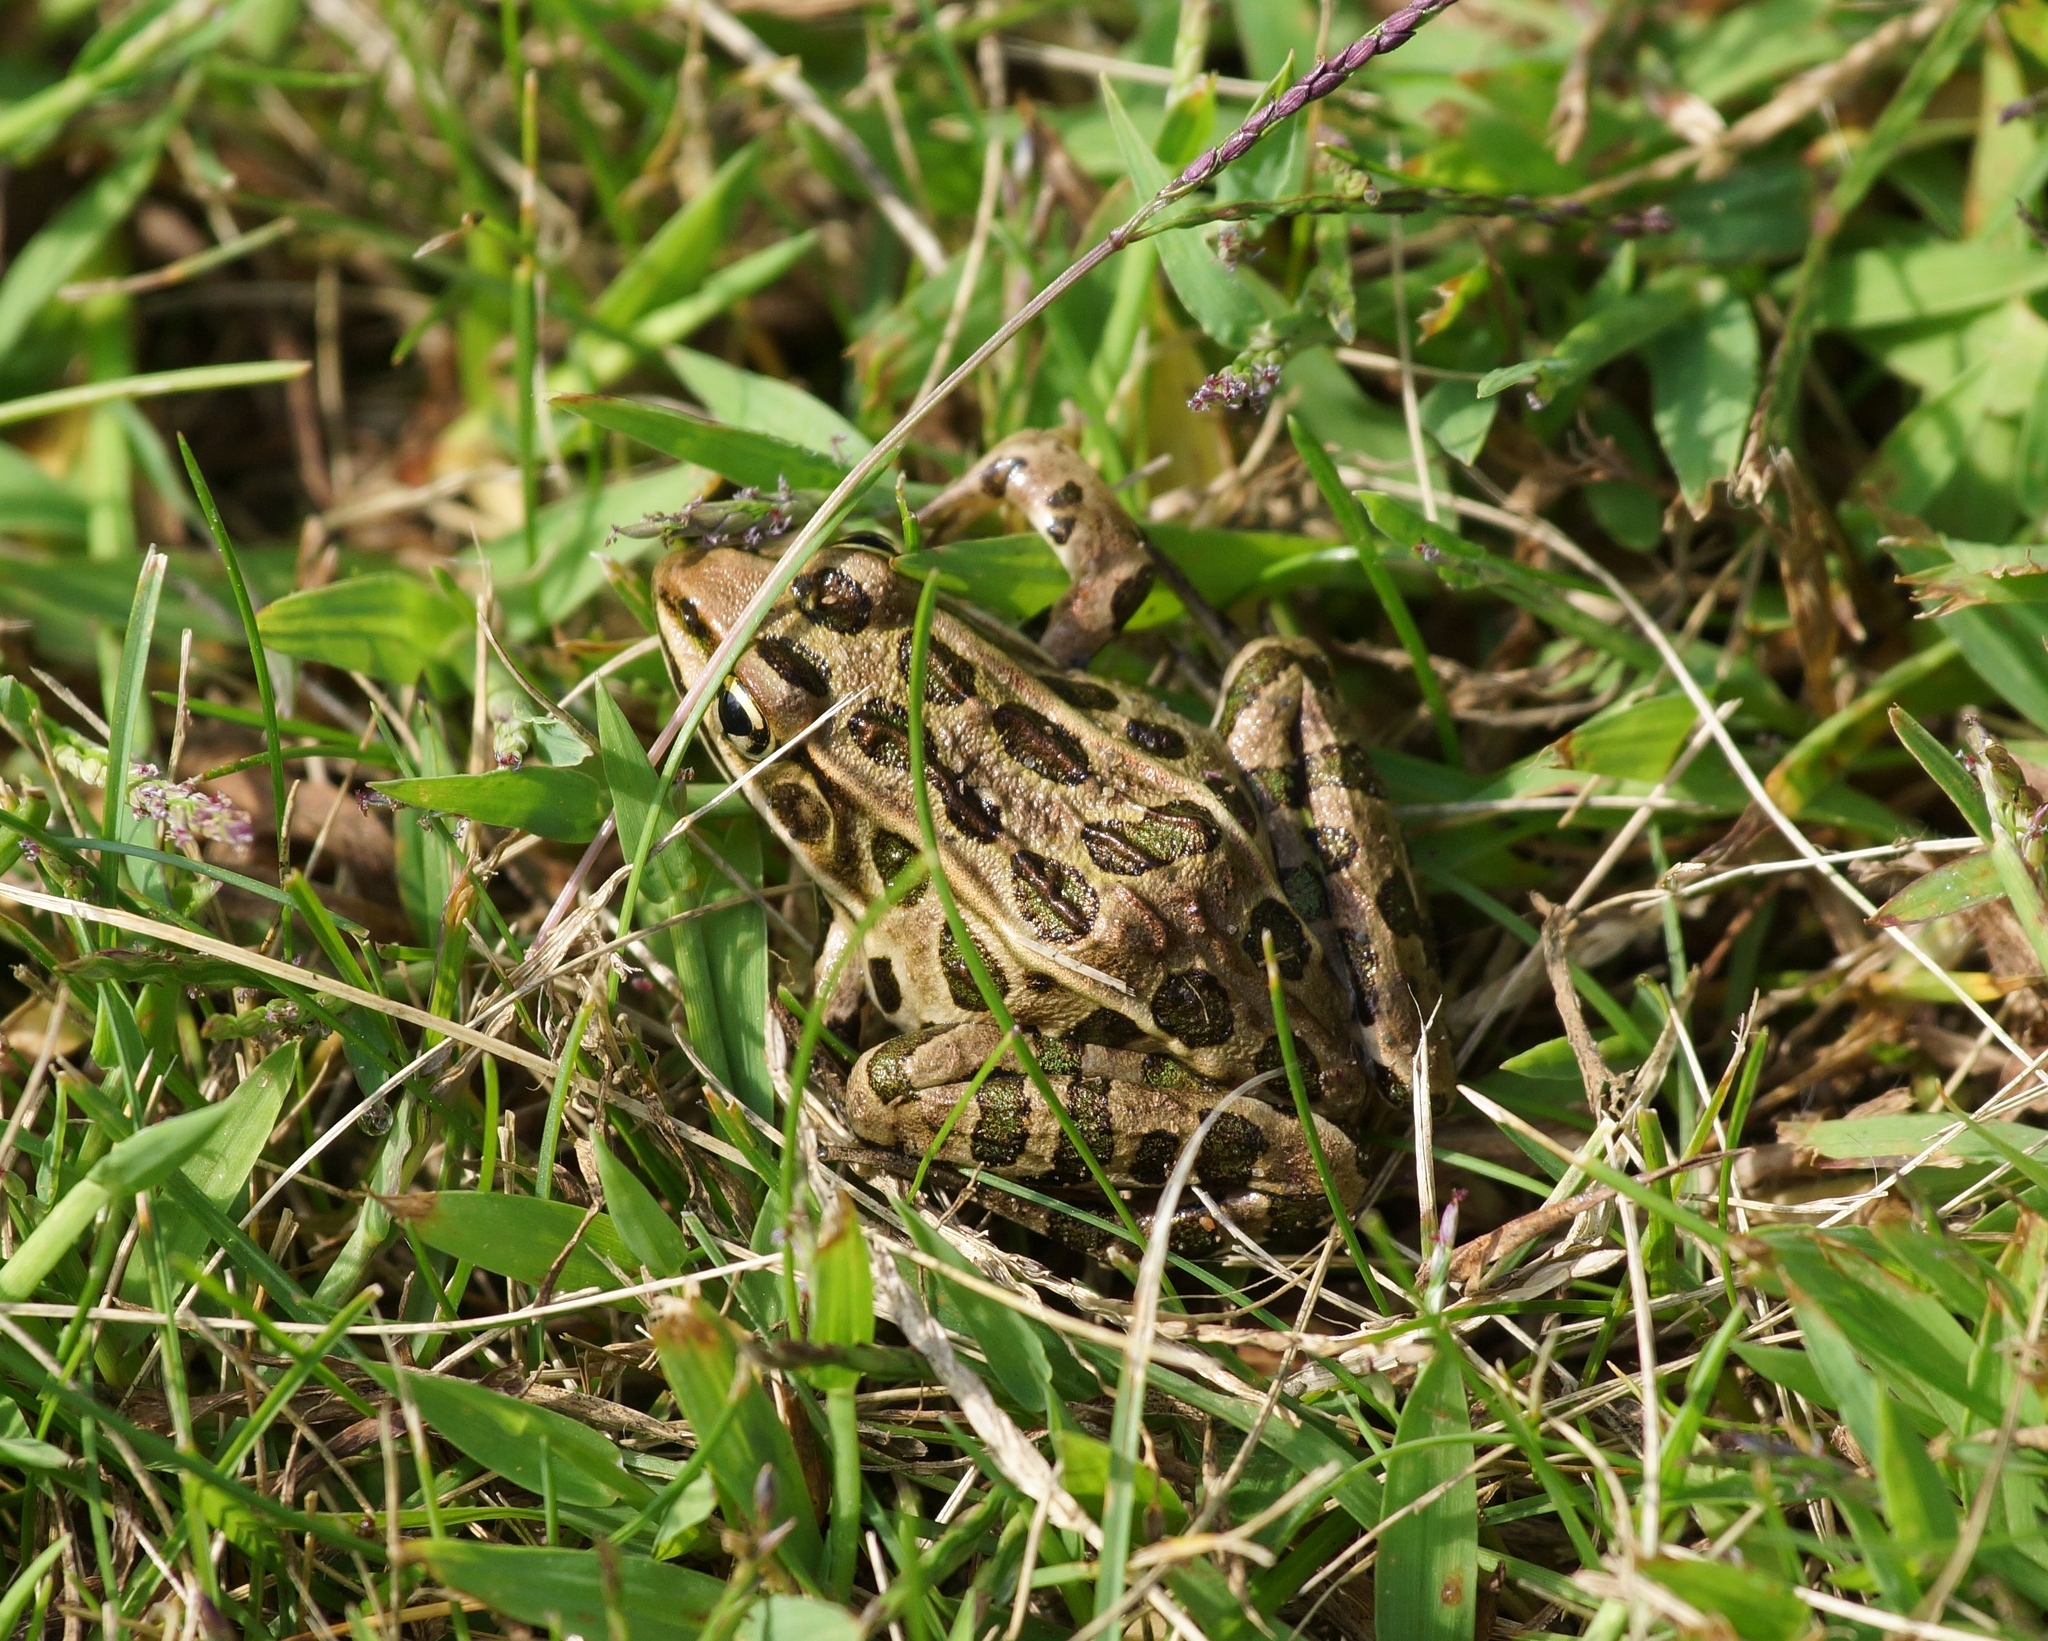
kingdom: Animalia
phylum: Chordata
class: Amphibia
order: Anura
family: Ranidae
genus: Lithobates
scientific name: Lithobates pipiens
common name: Northern leopard frog
